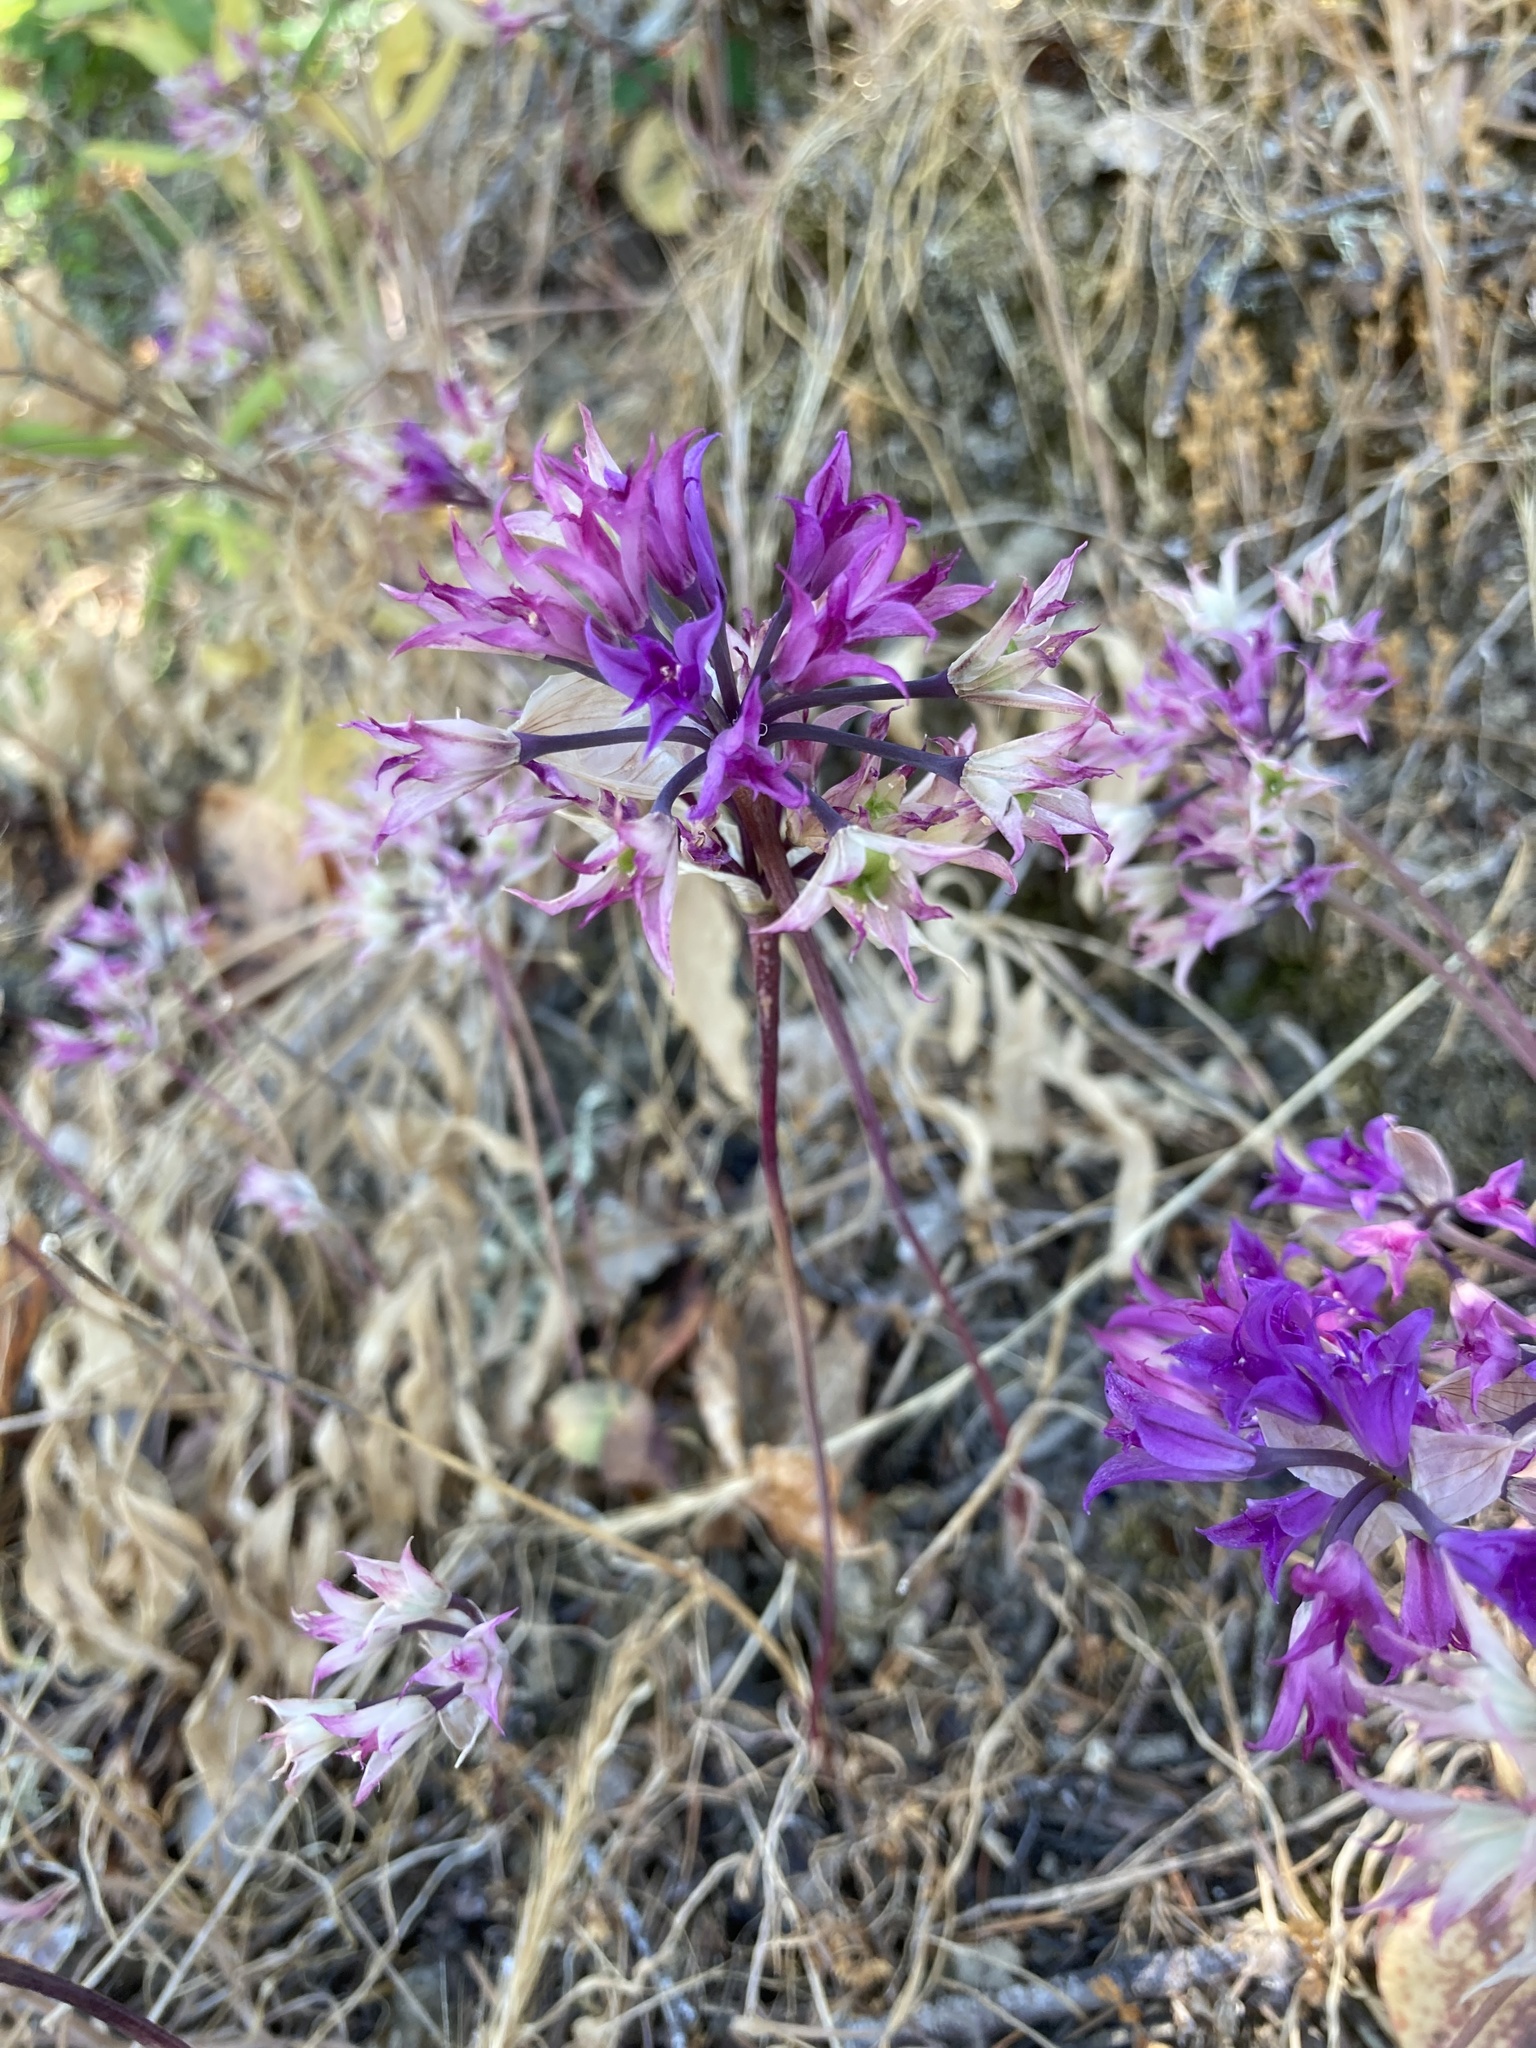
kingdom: Plantae
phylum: Tracheophyta
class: Liliopsida
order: Asparagales
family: Amaryllidaceae
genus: Allium
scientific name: Allium acuminatum
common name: Hooker's onion
